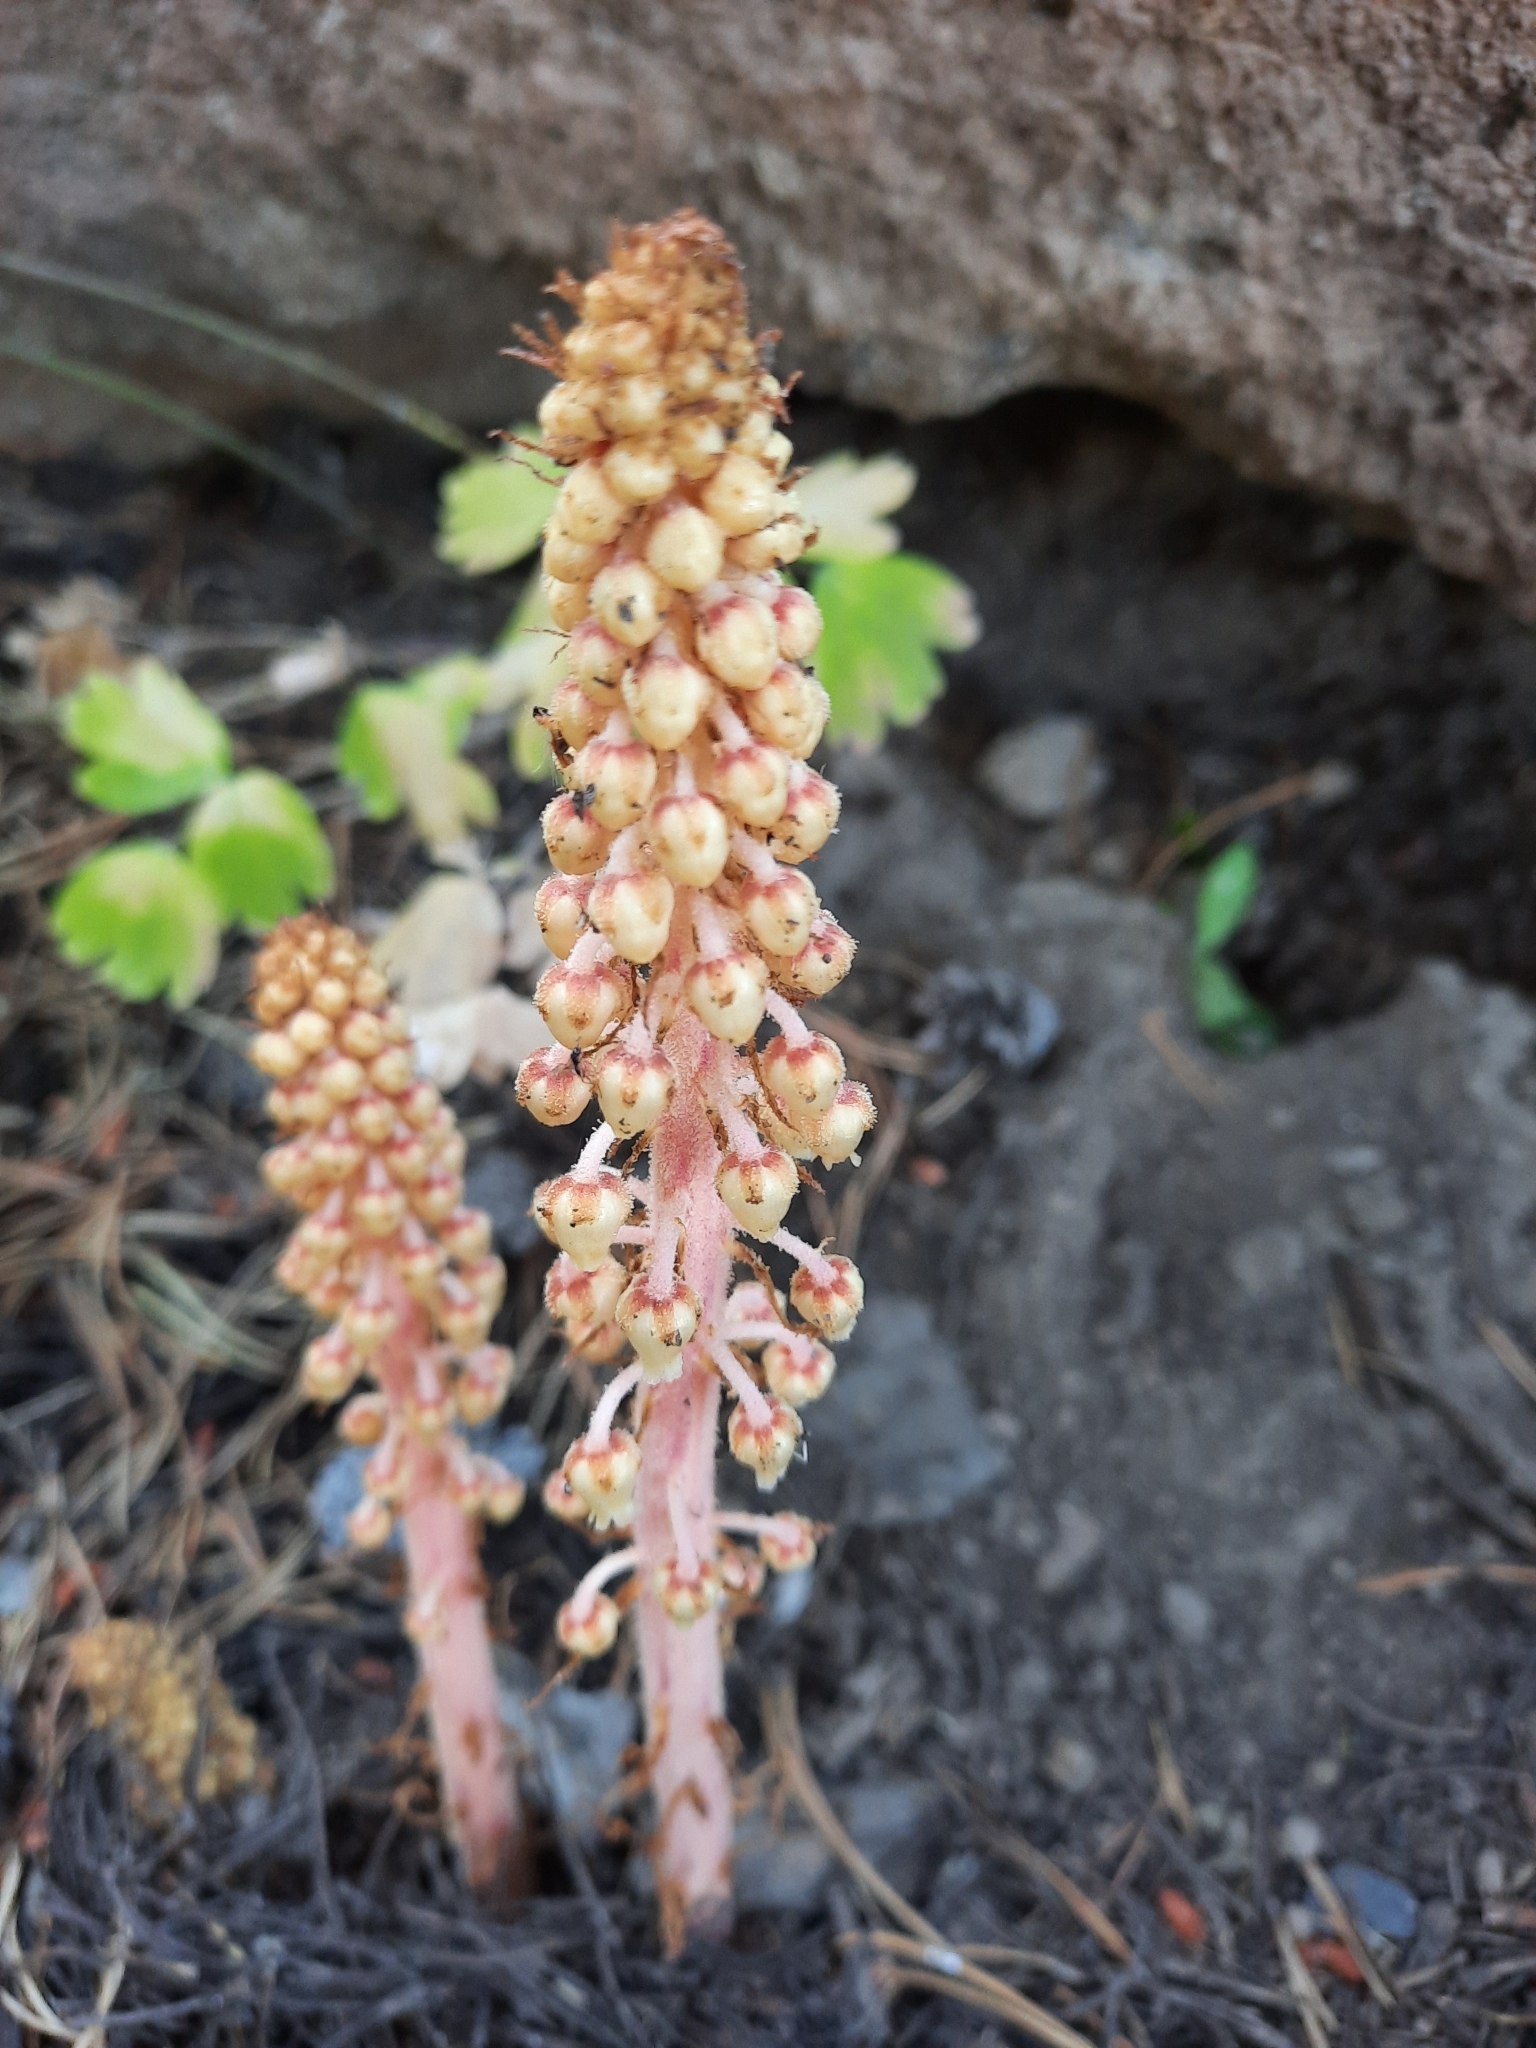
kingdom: Plantae
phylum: Tracheophyta
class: Magnoliopsida
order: Ericales
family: Ericaceae
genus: Pterospora
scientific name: Pterospora andromedea
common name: Giant bird's-nest
